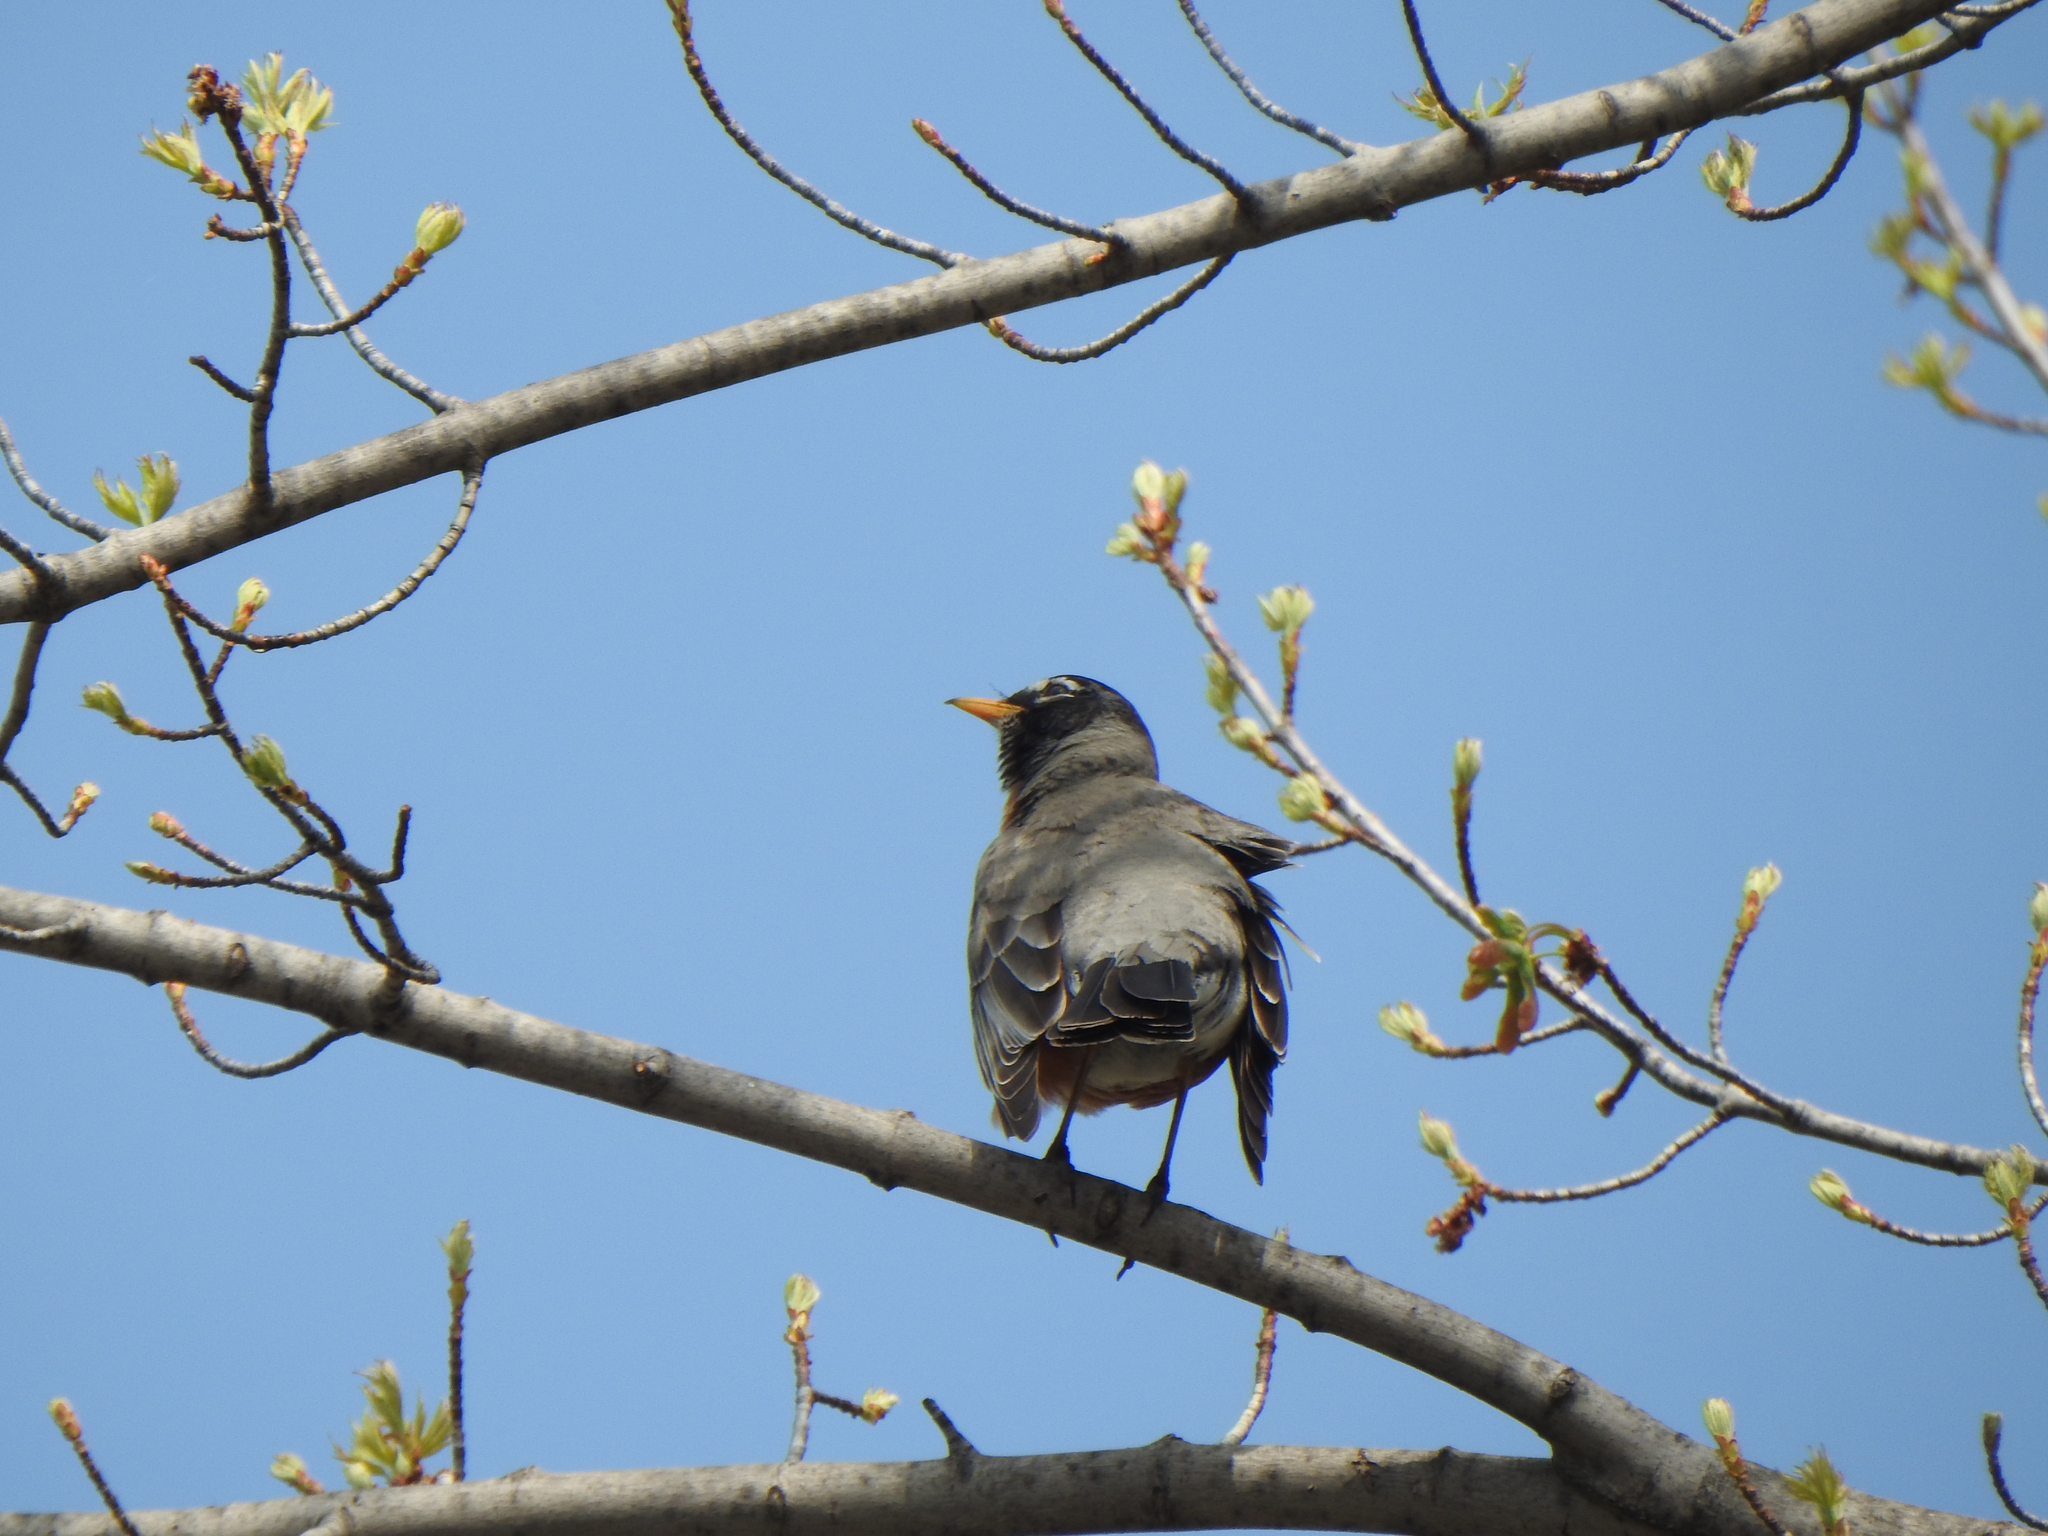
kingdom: Animalia
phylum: Chordata
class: Aves
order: Passeriformes
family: Turdidae
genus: Turdus
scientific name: Turdus migratorius
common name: American robin
